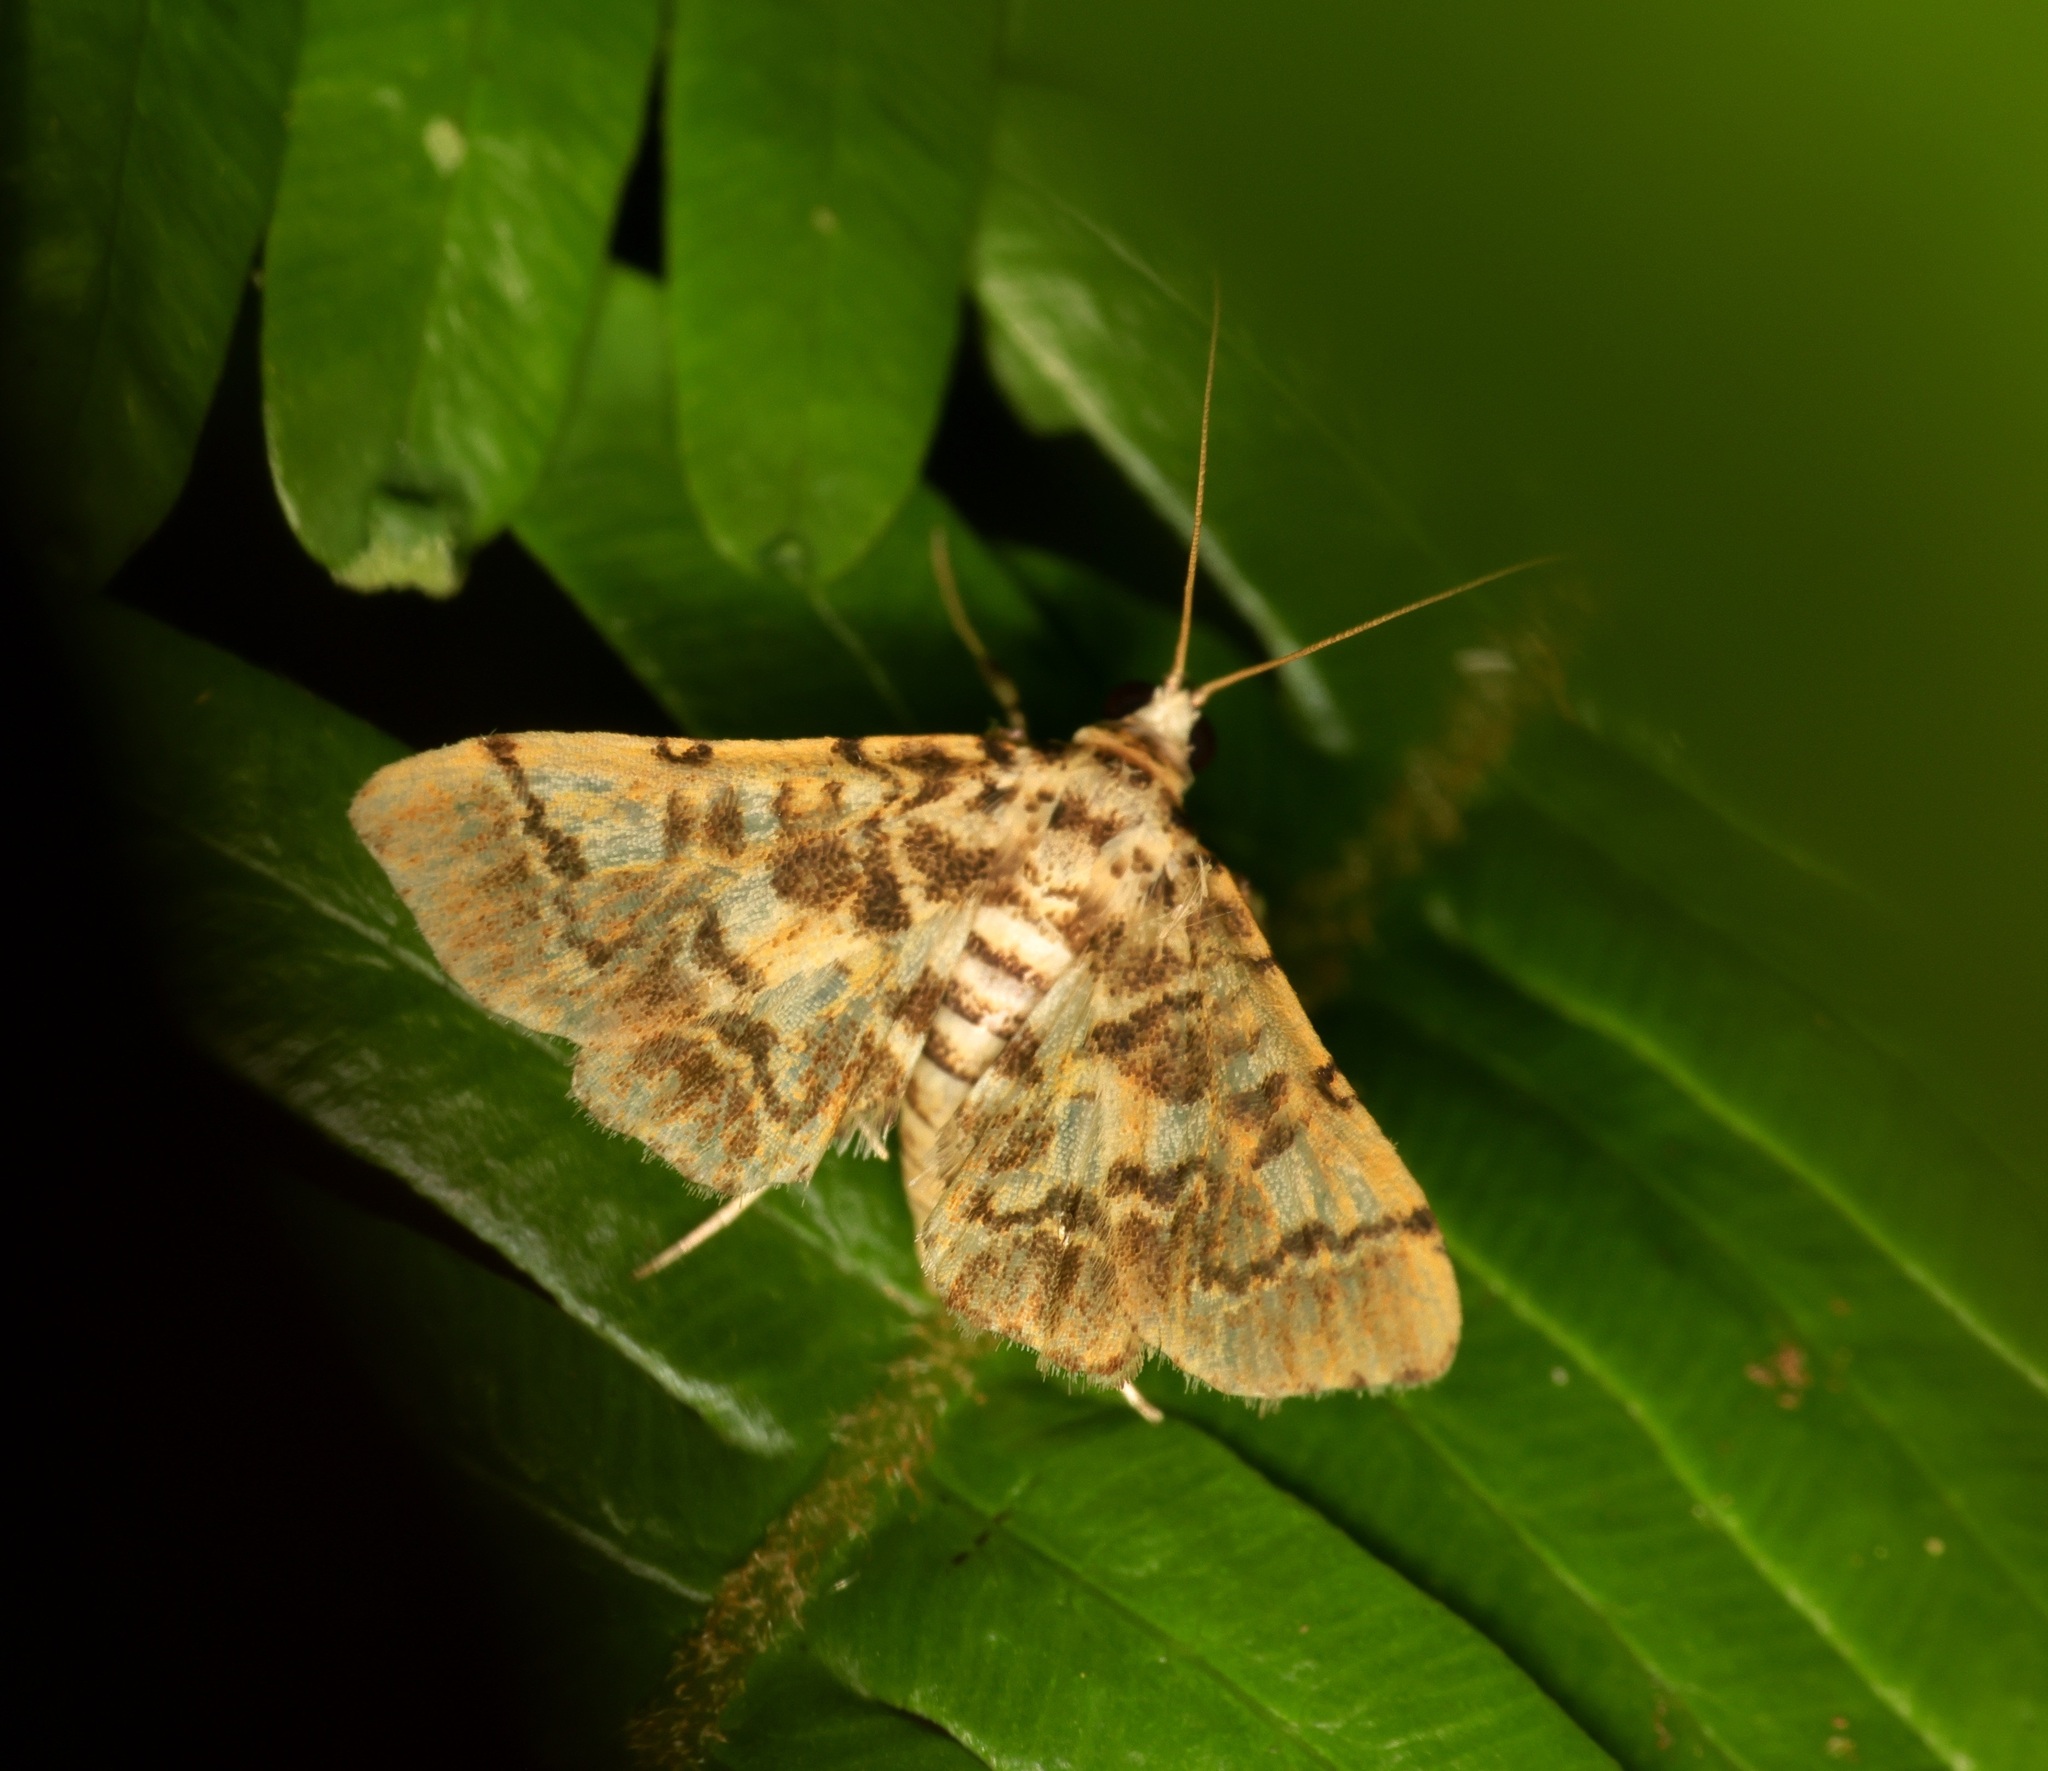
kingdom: Animalia
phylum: Arthropoda
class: Insecta
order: Lepidoptera
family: Crambidae
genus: Lamprosema
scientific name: Lamprosema commixta
